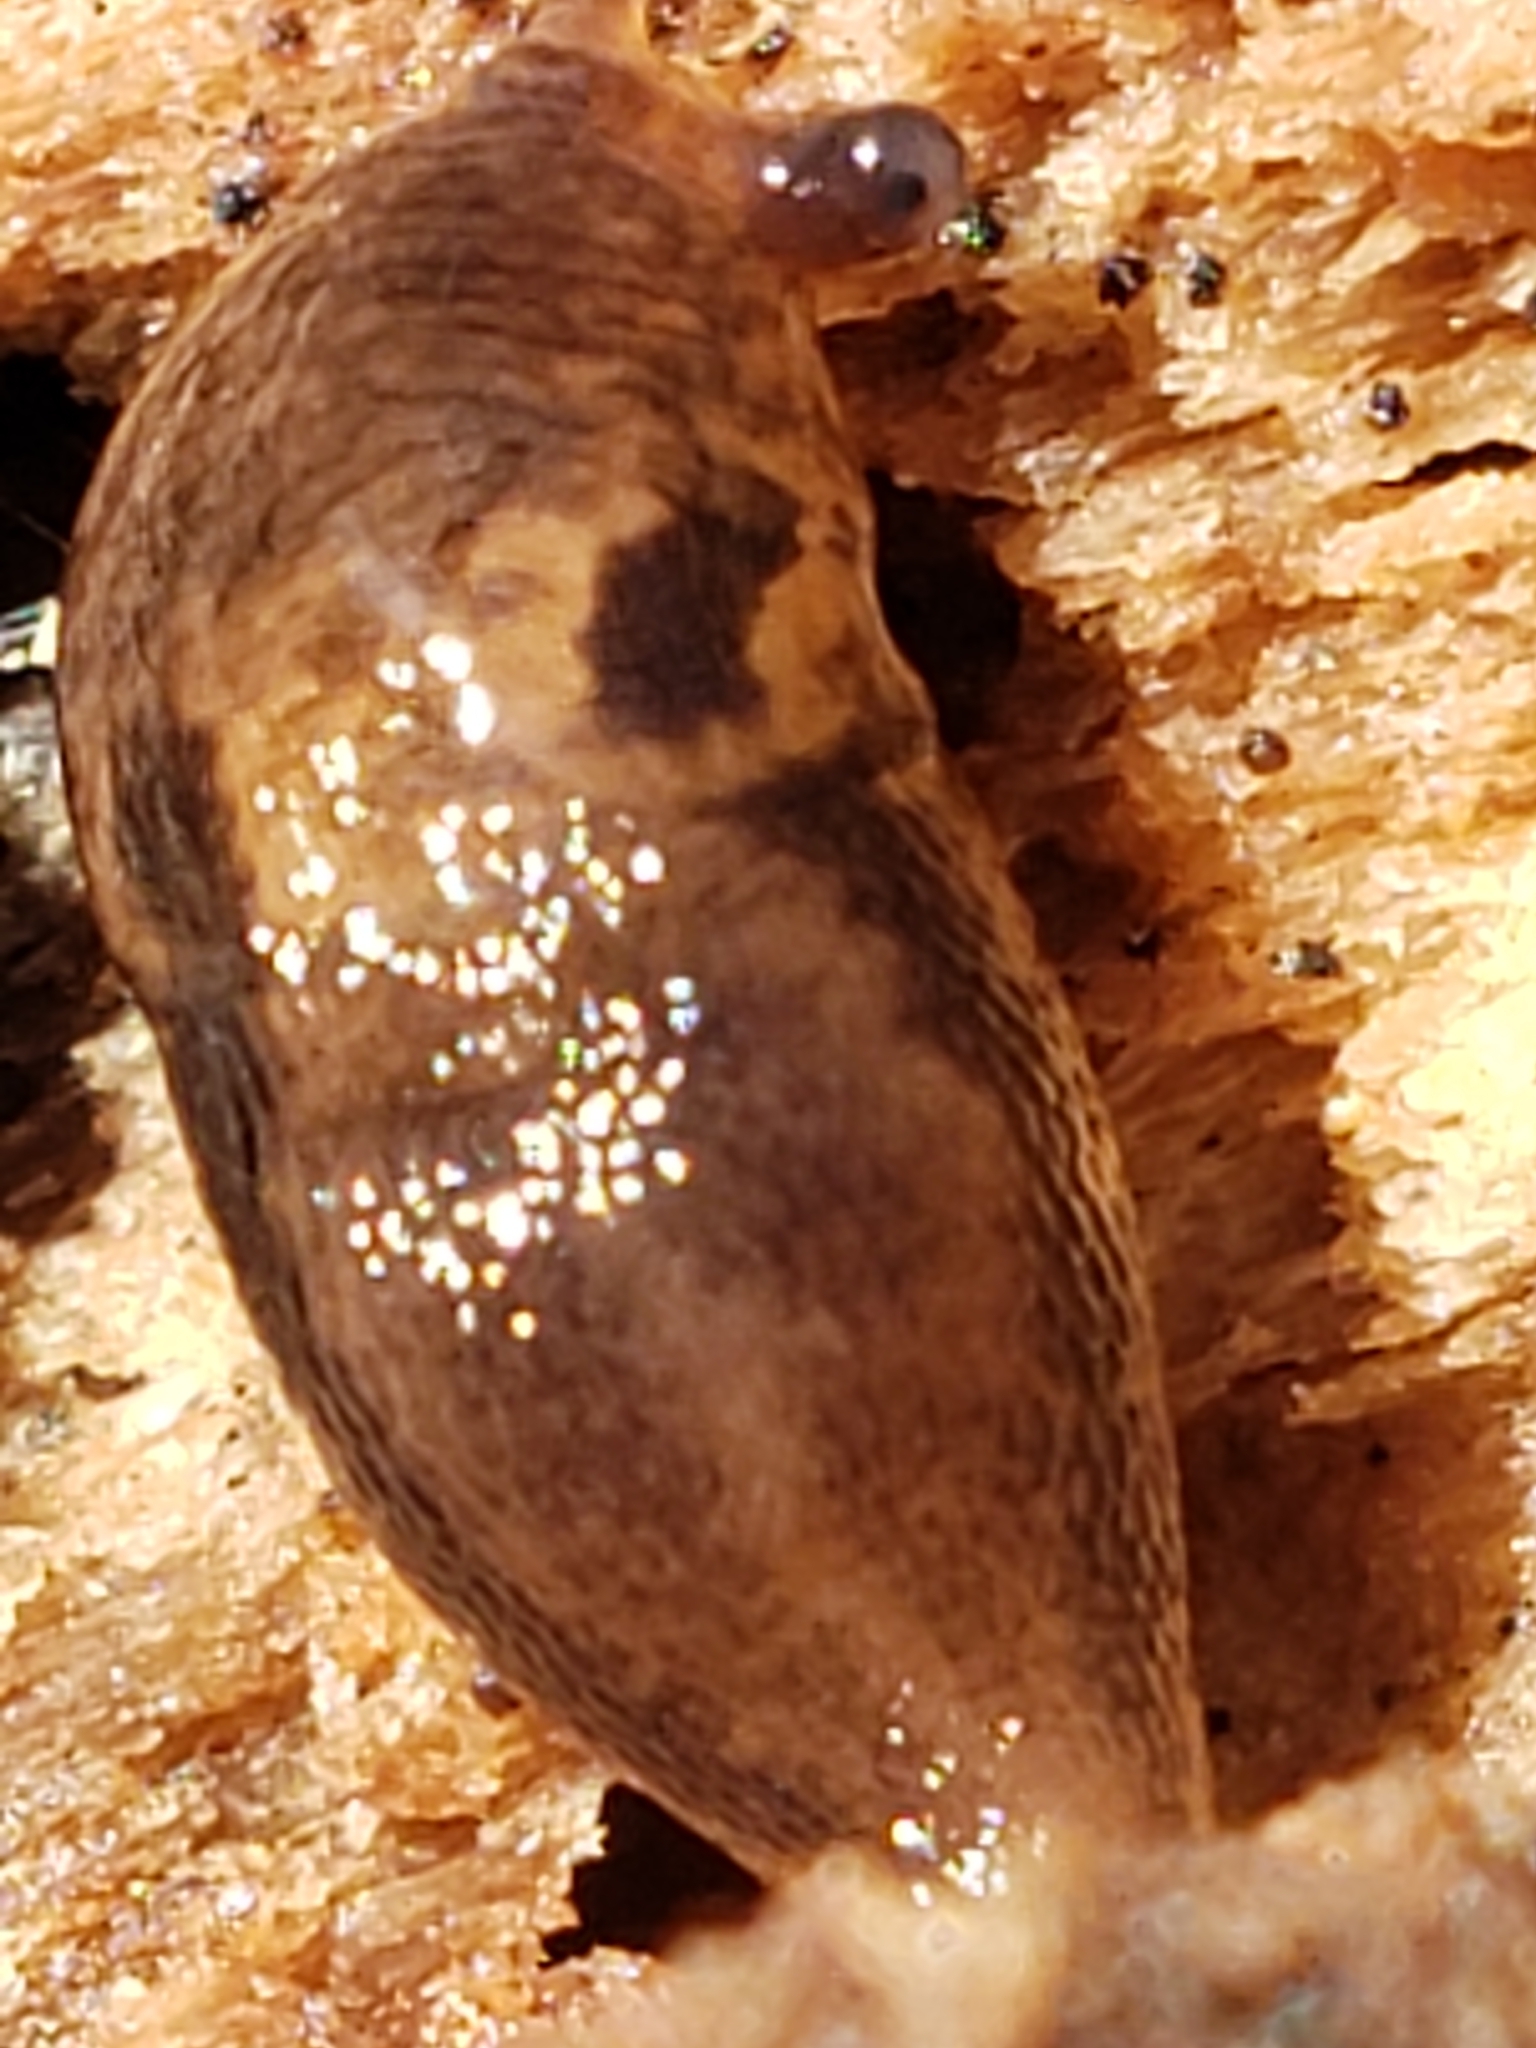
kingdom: Animalia
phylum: Mollusca
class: Gastropoda
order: Stylommatophora
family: Limacidae
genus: Limax
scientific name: Limax maximus
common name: Great grey slug
